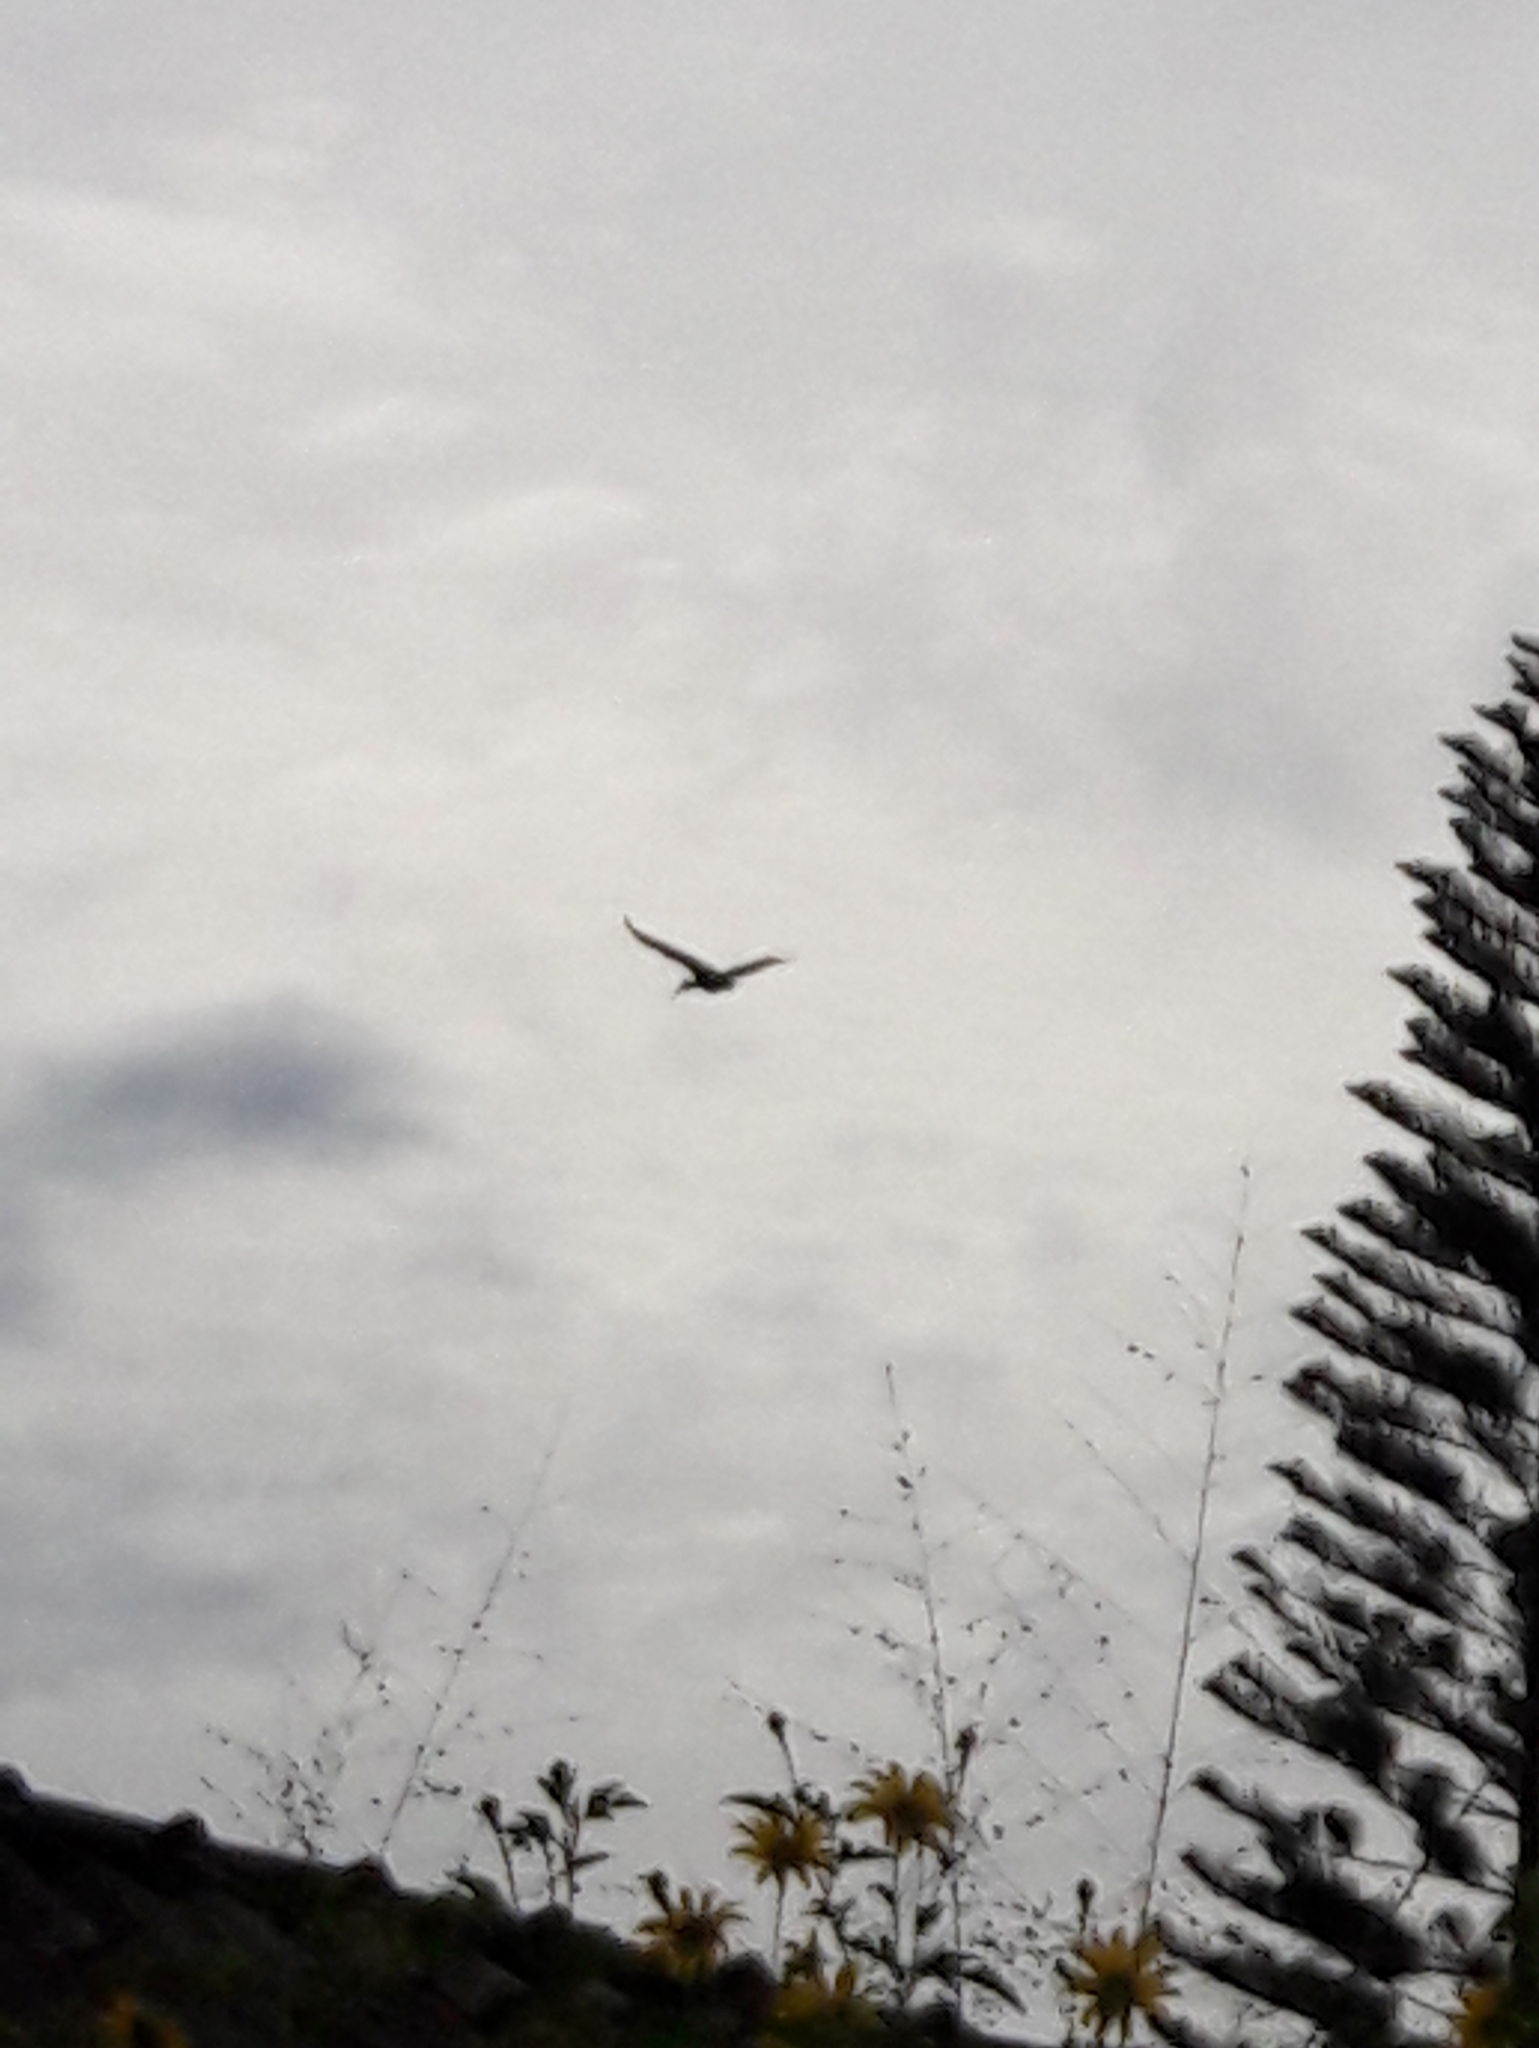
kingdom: Animalia
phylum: Chordata
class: Aves
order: Pelecaniformes
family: Threskiornithidae
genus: Theristicus
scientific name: Theristicus caudatus
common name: Buff-necked ibis
